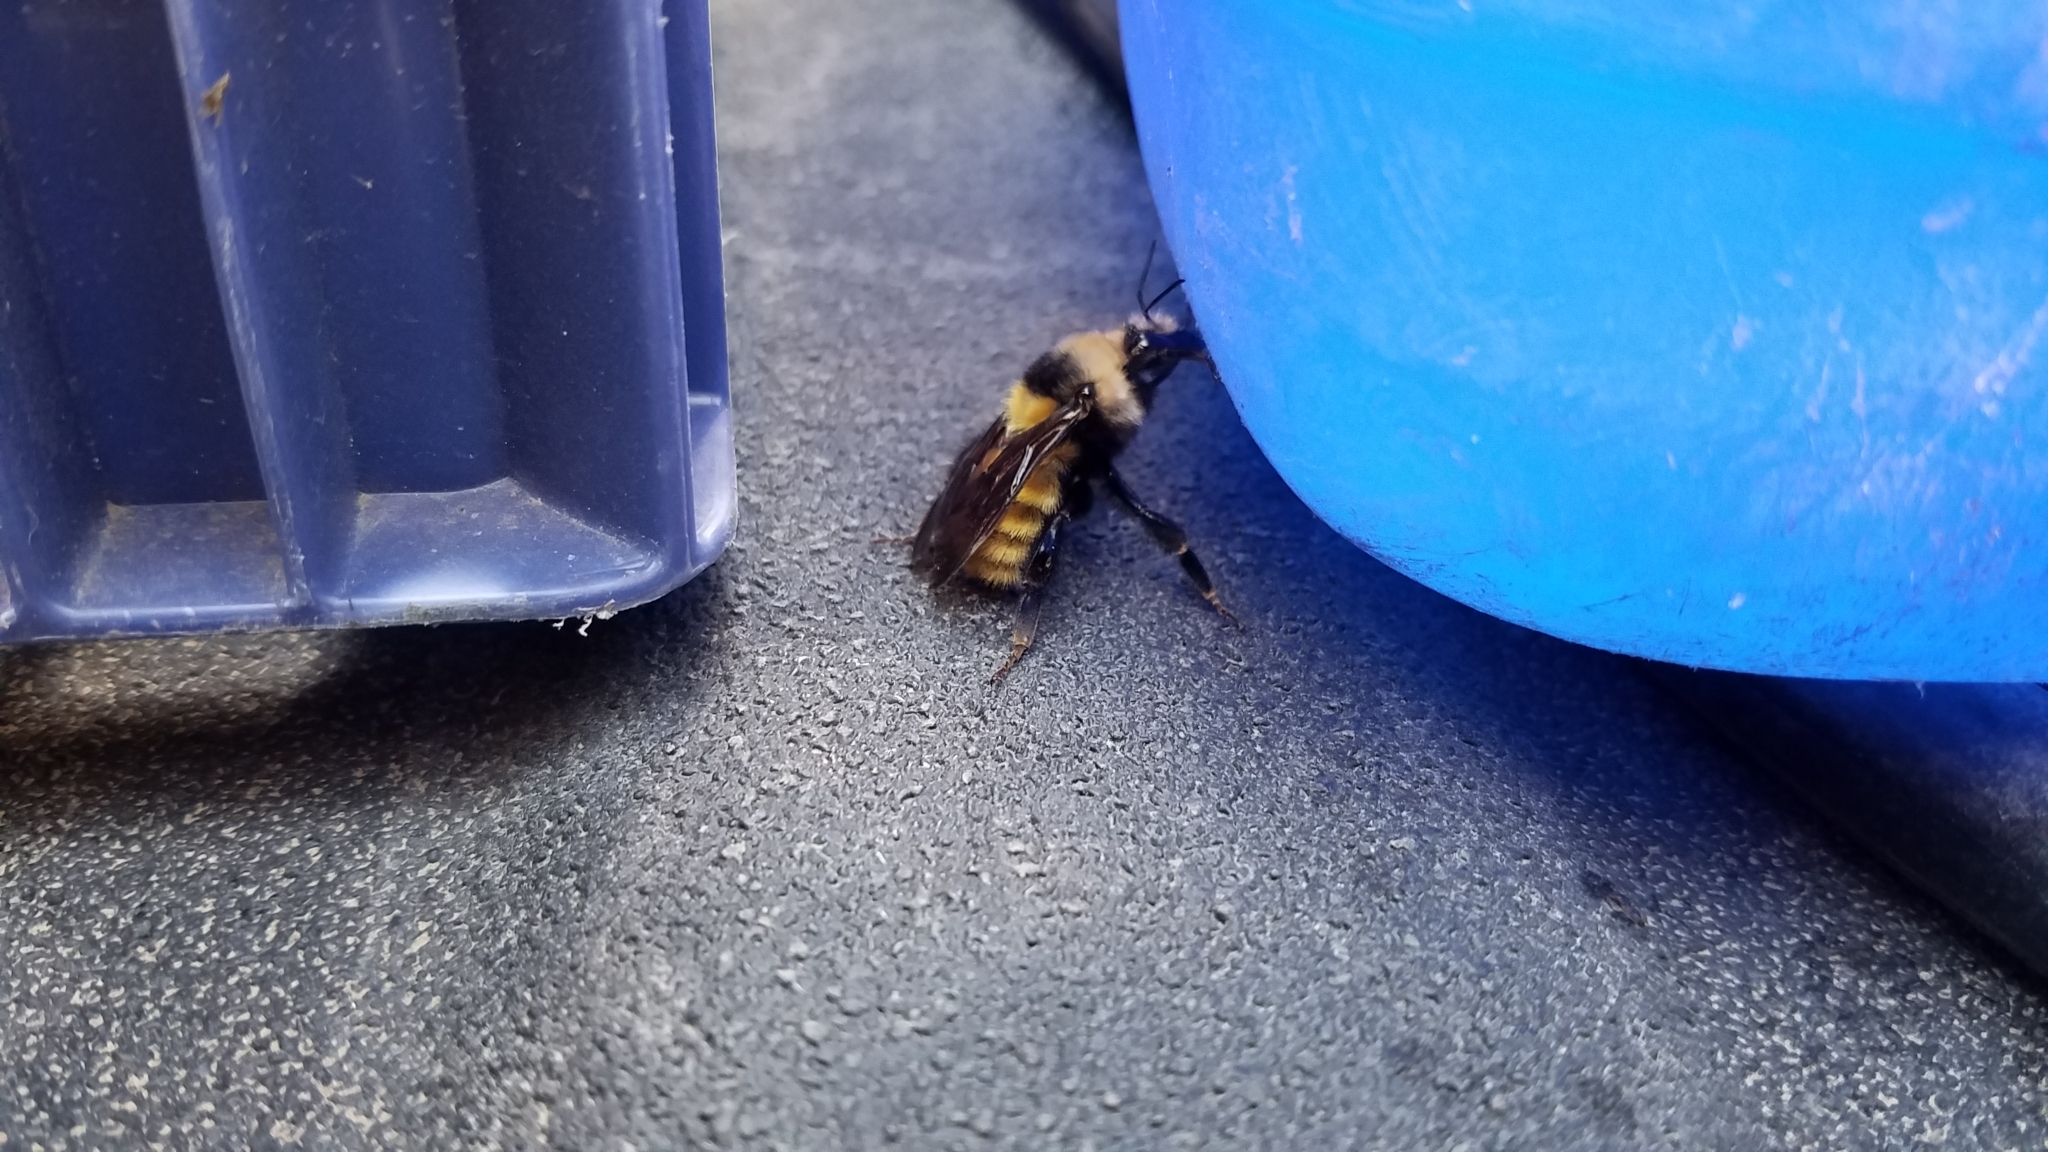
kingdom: Animalia
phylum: Arthropoda
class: Insecta
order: Hymenoptera
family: Apidae
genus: Bombus
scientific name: Bombus appositus
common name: White-shouldered bumble bee
